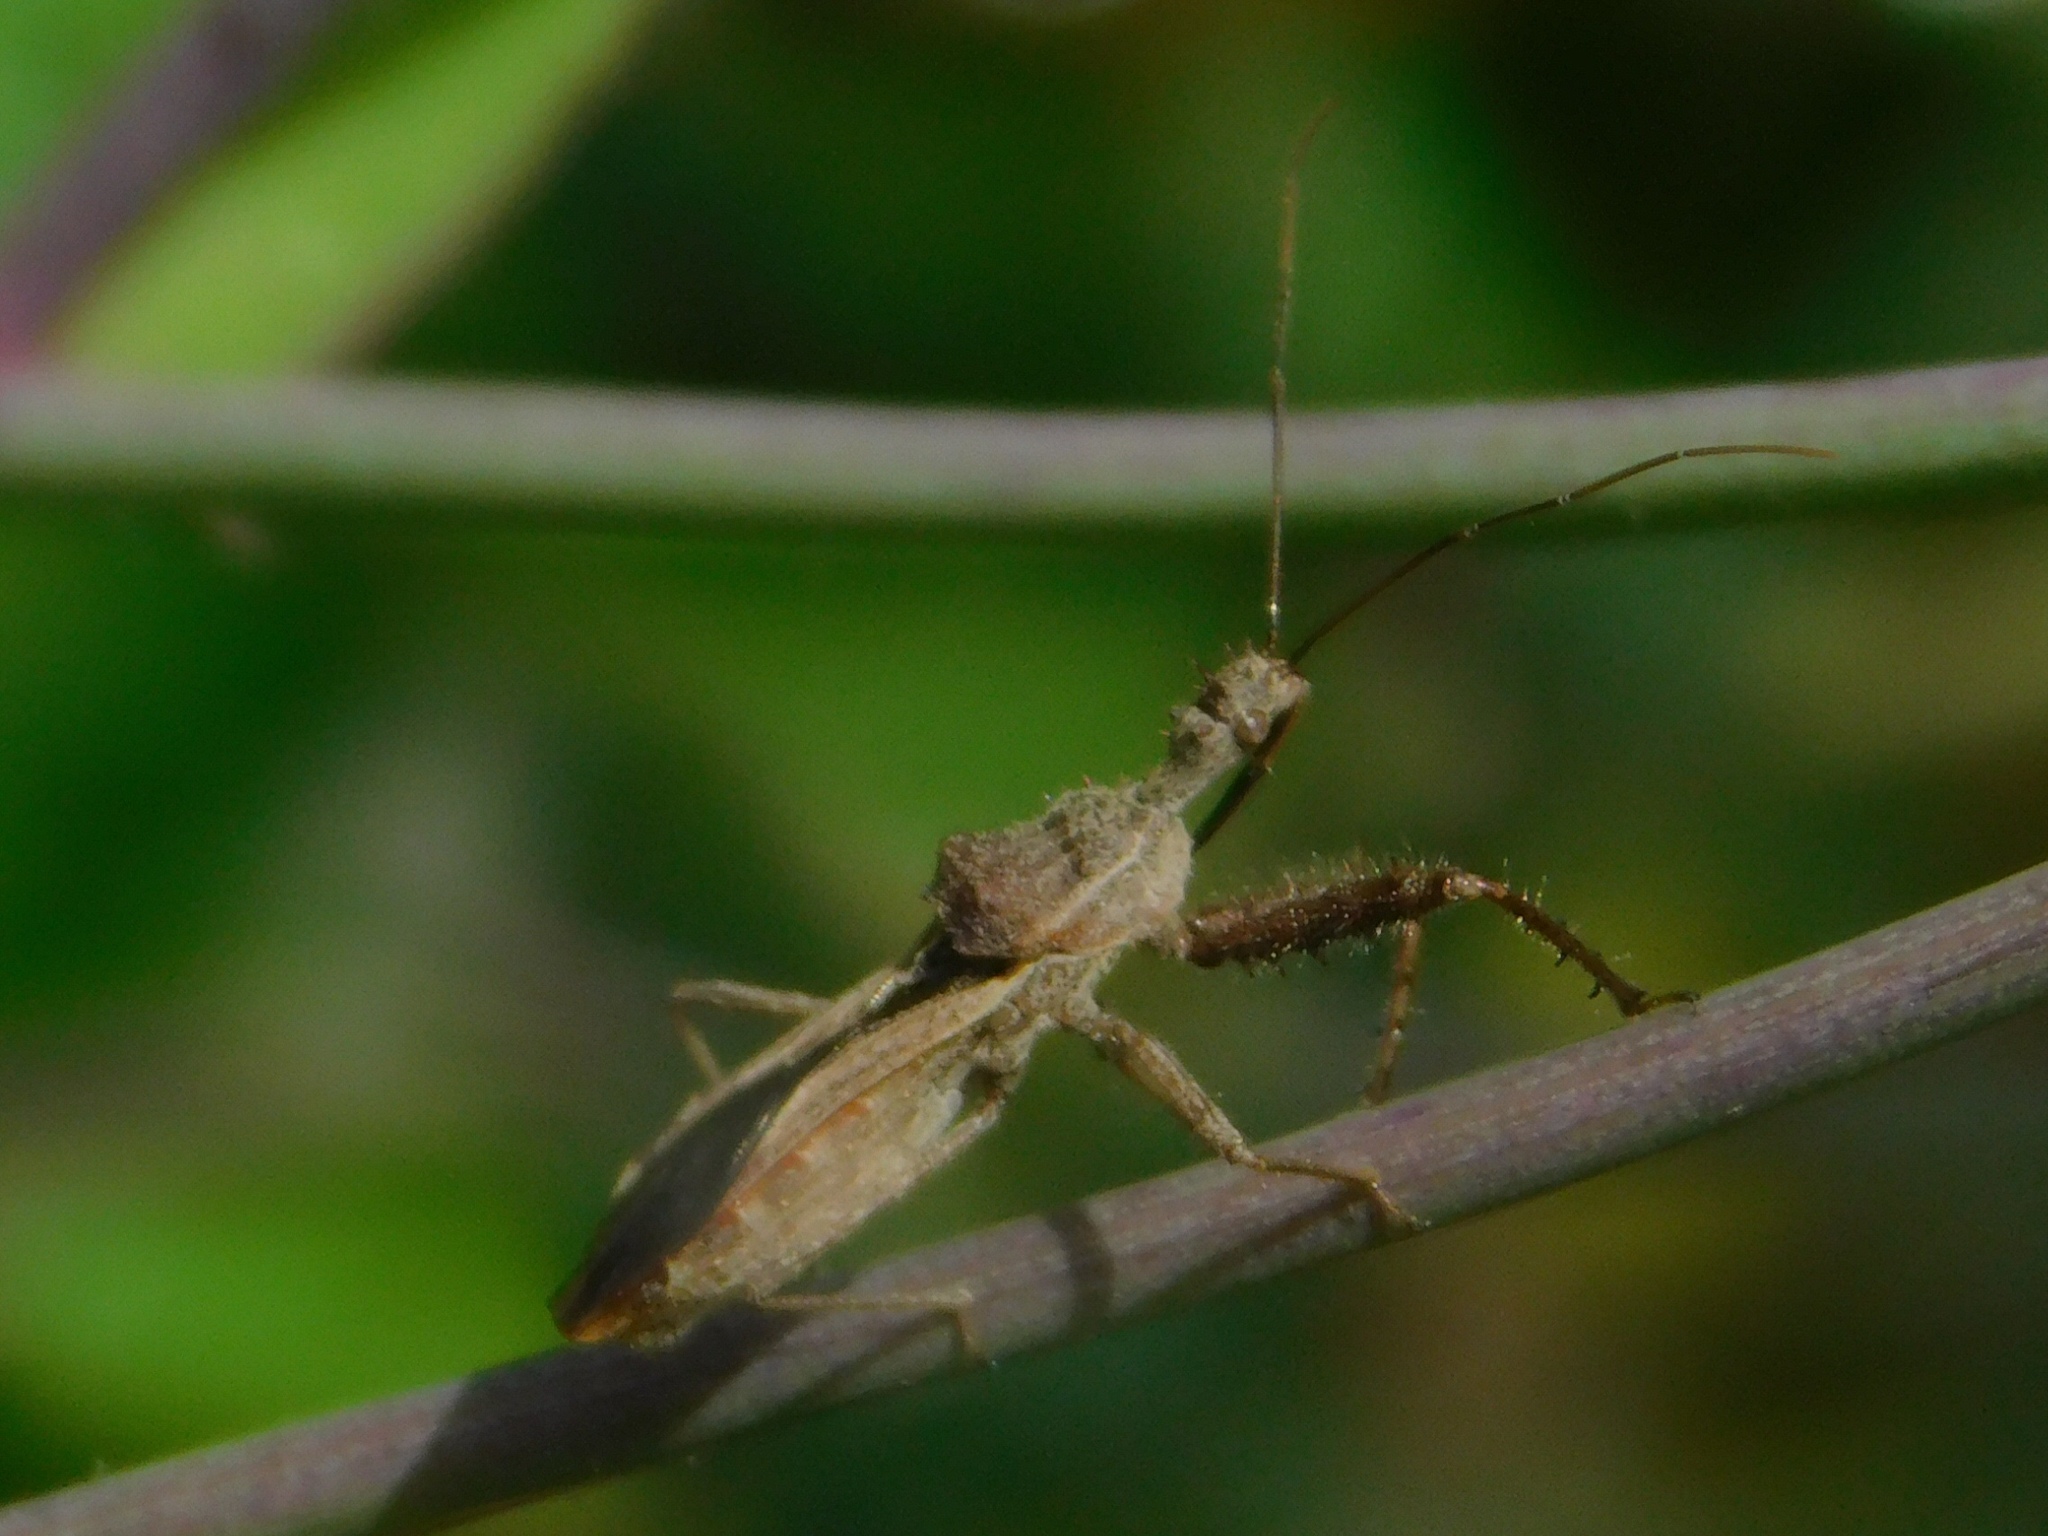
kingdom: Animalia
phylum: Arthropoda
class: Insecta
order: Hemiptera
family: Reduviidae
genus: Sinea
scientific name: Sinea diadema
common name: Spined assassin bug
